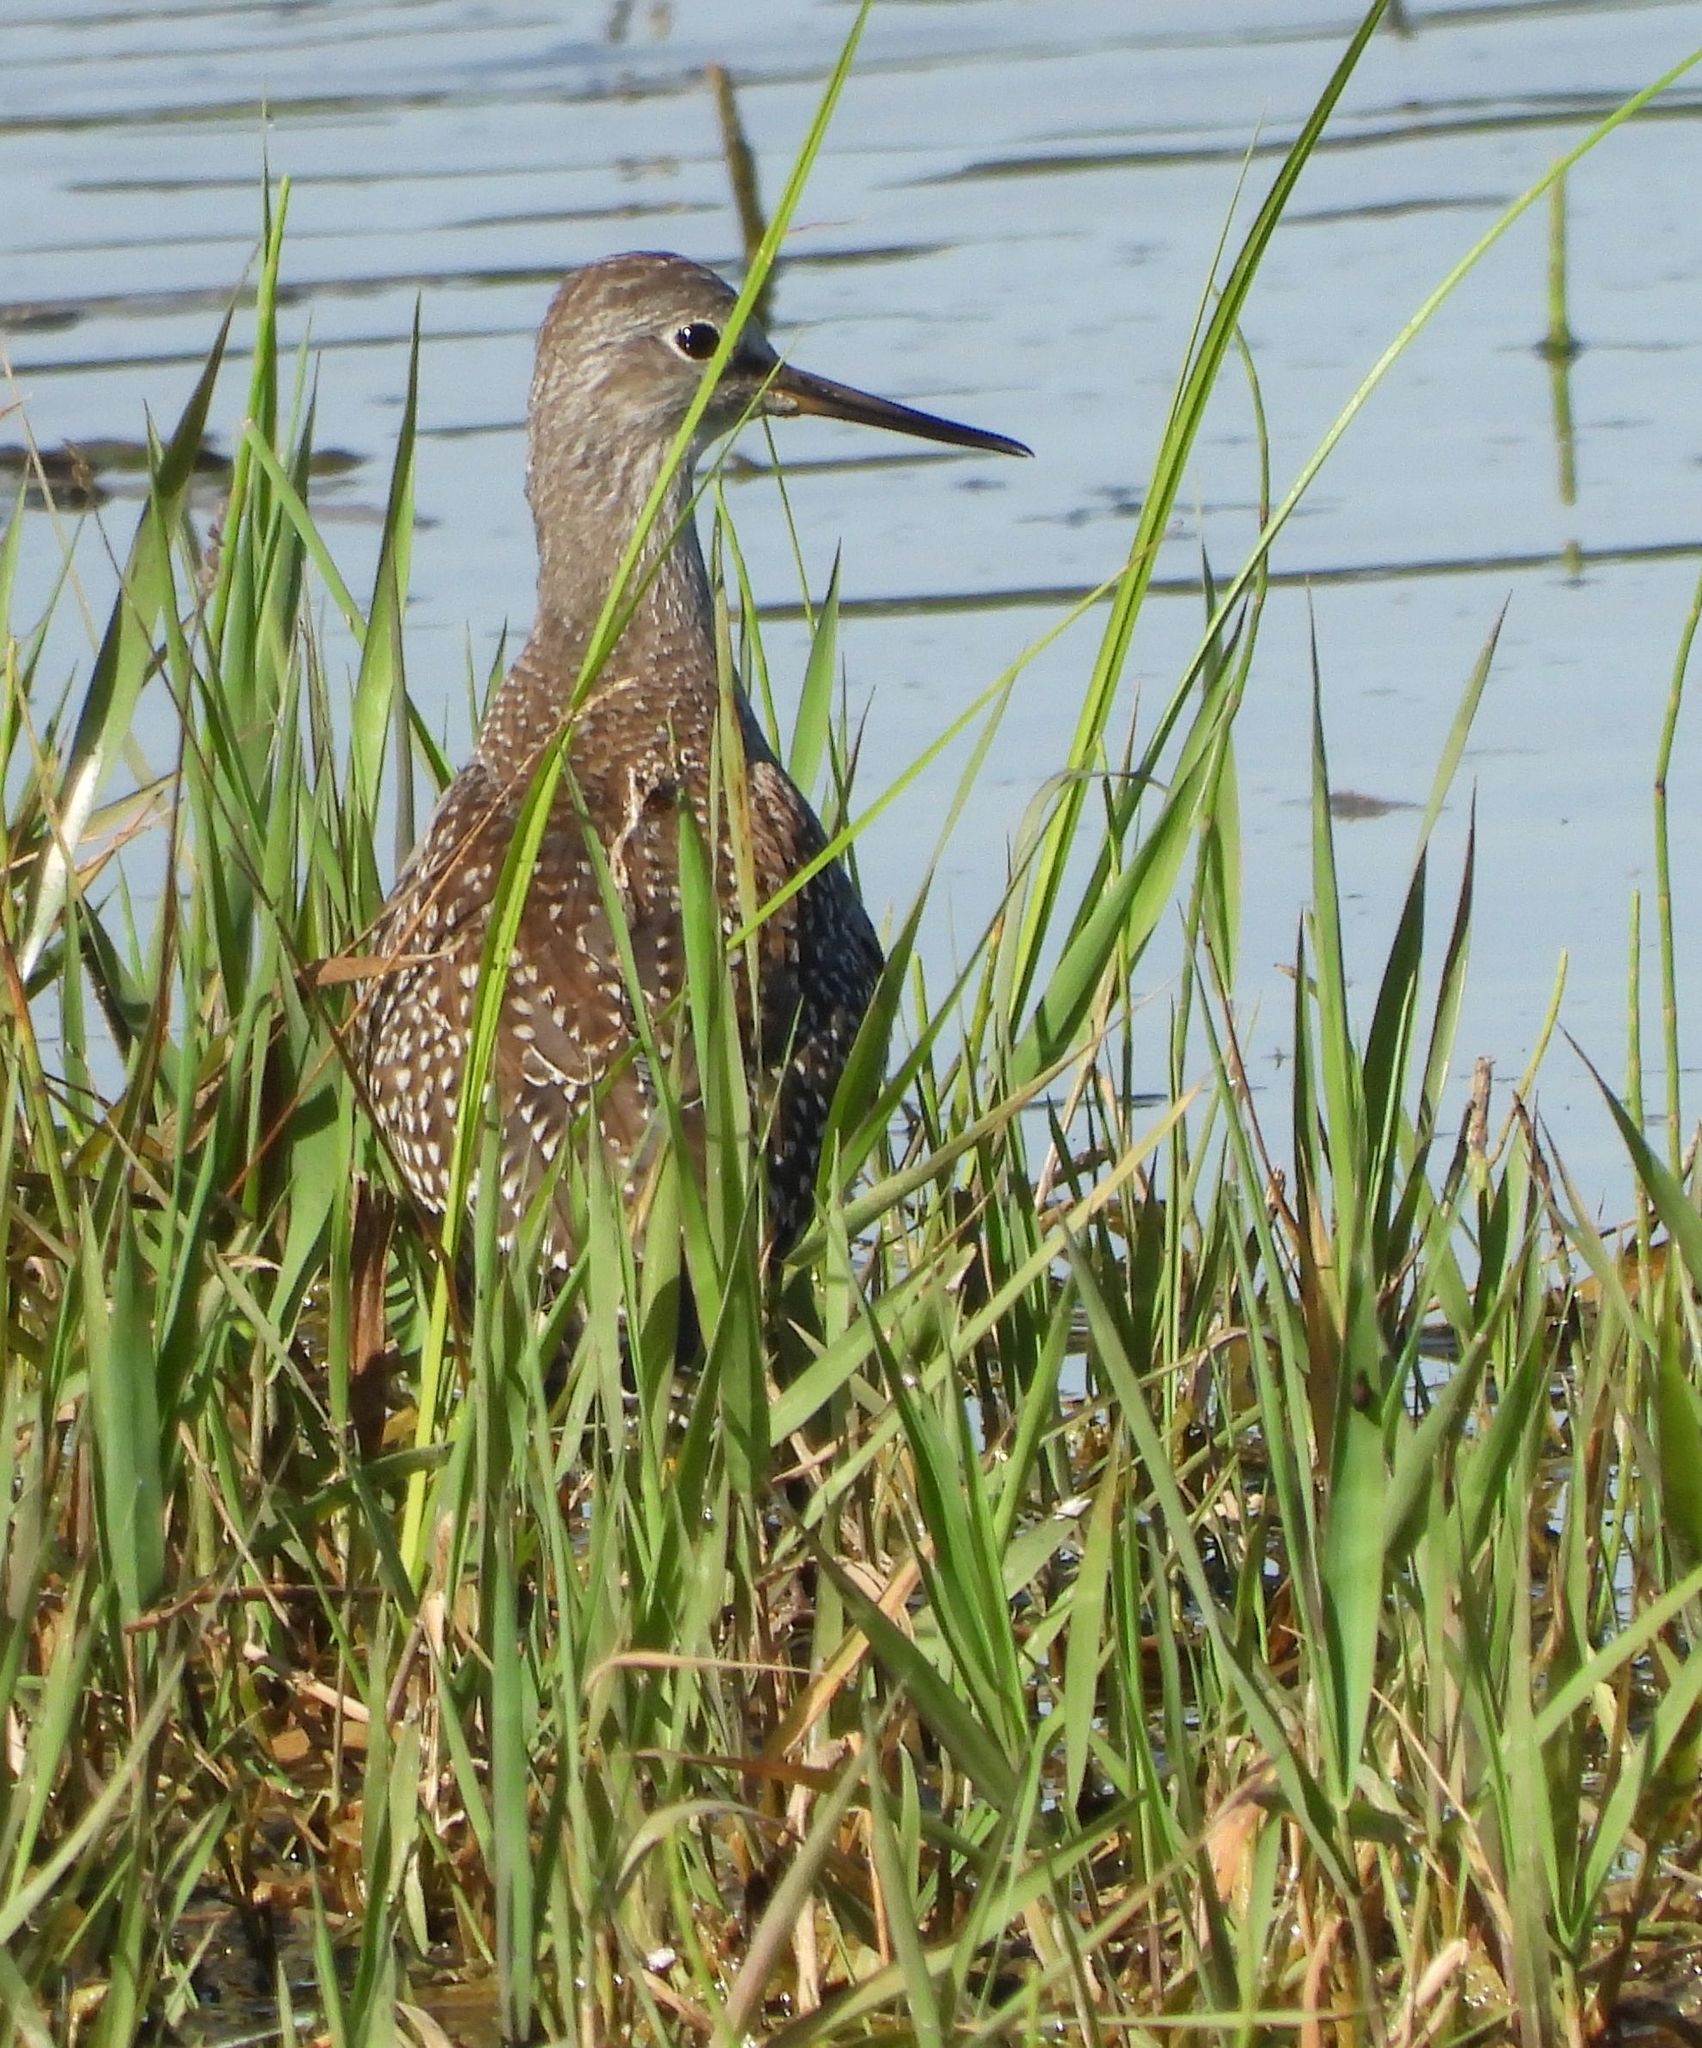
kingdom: Animalia
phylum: Chordata
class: Aves
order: Charadriiformes
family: Scolopacidae
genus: Tringa
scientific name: Tringa flavipes
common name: Lesser yellowlegs
